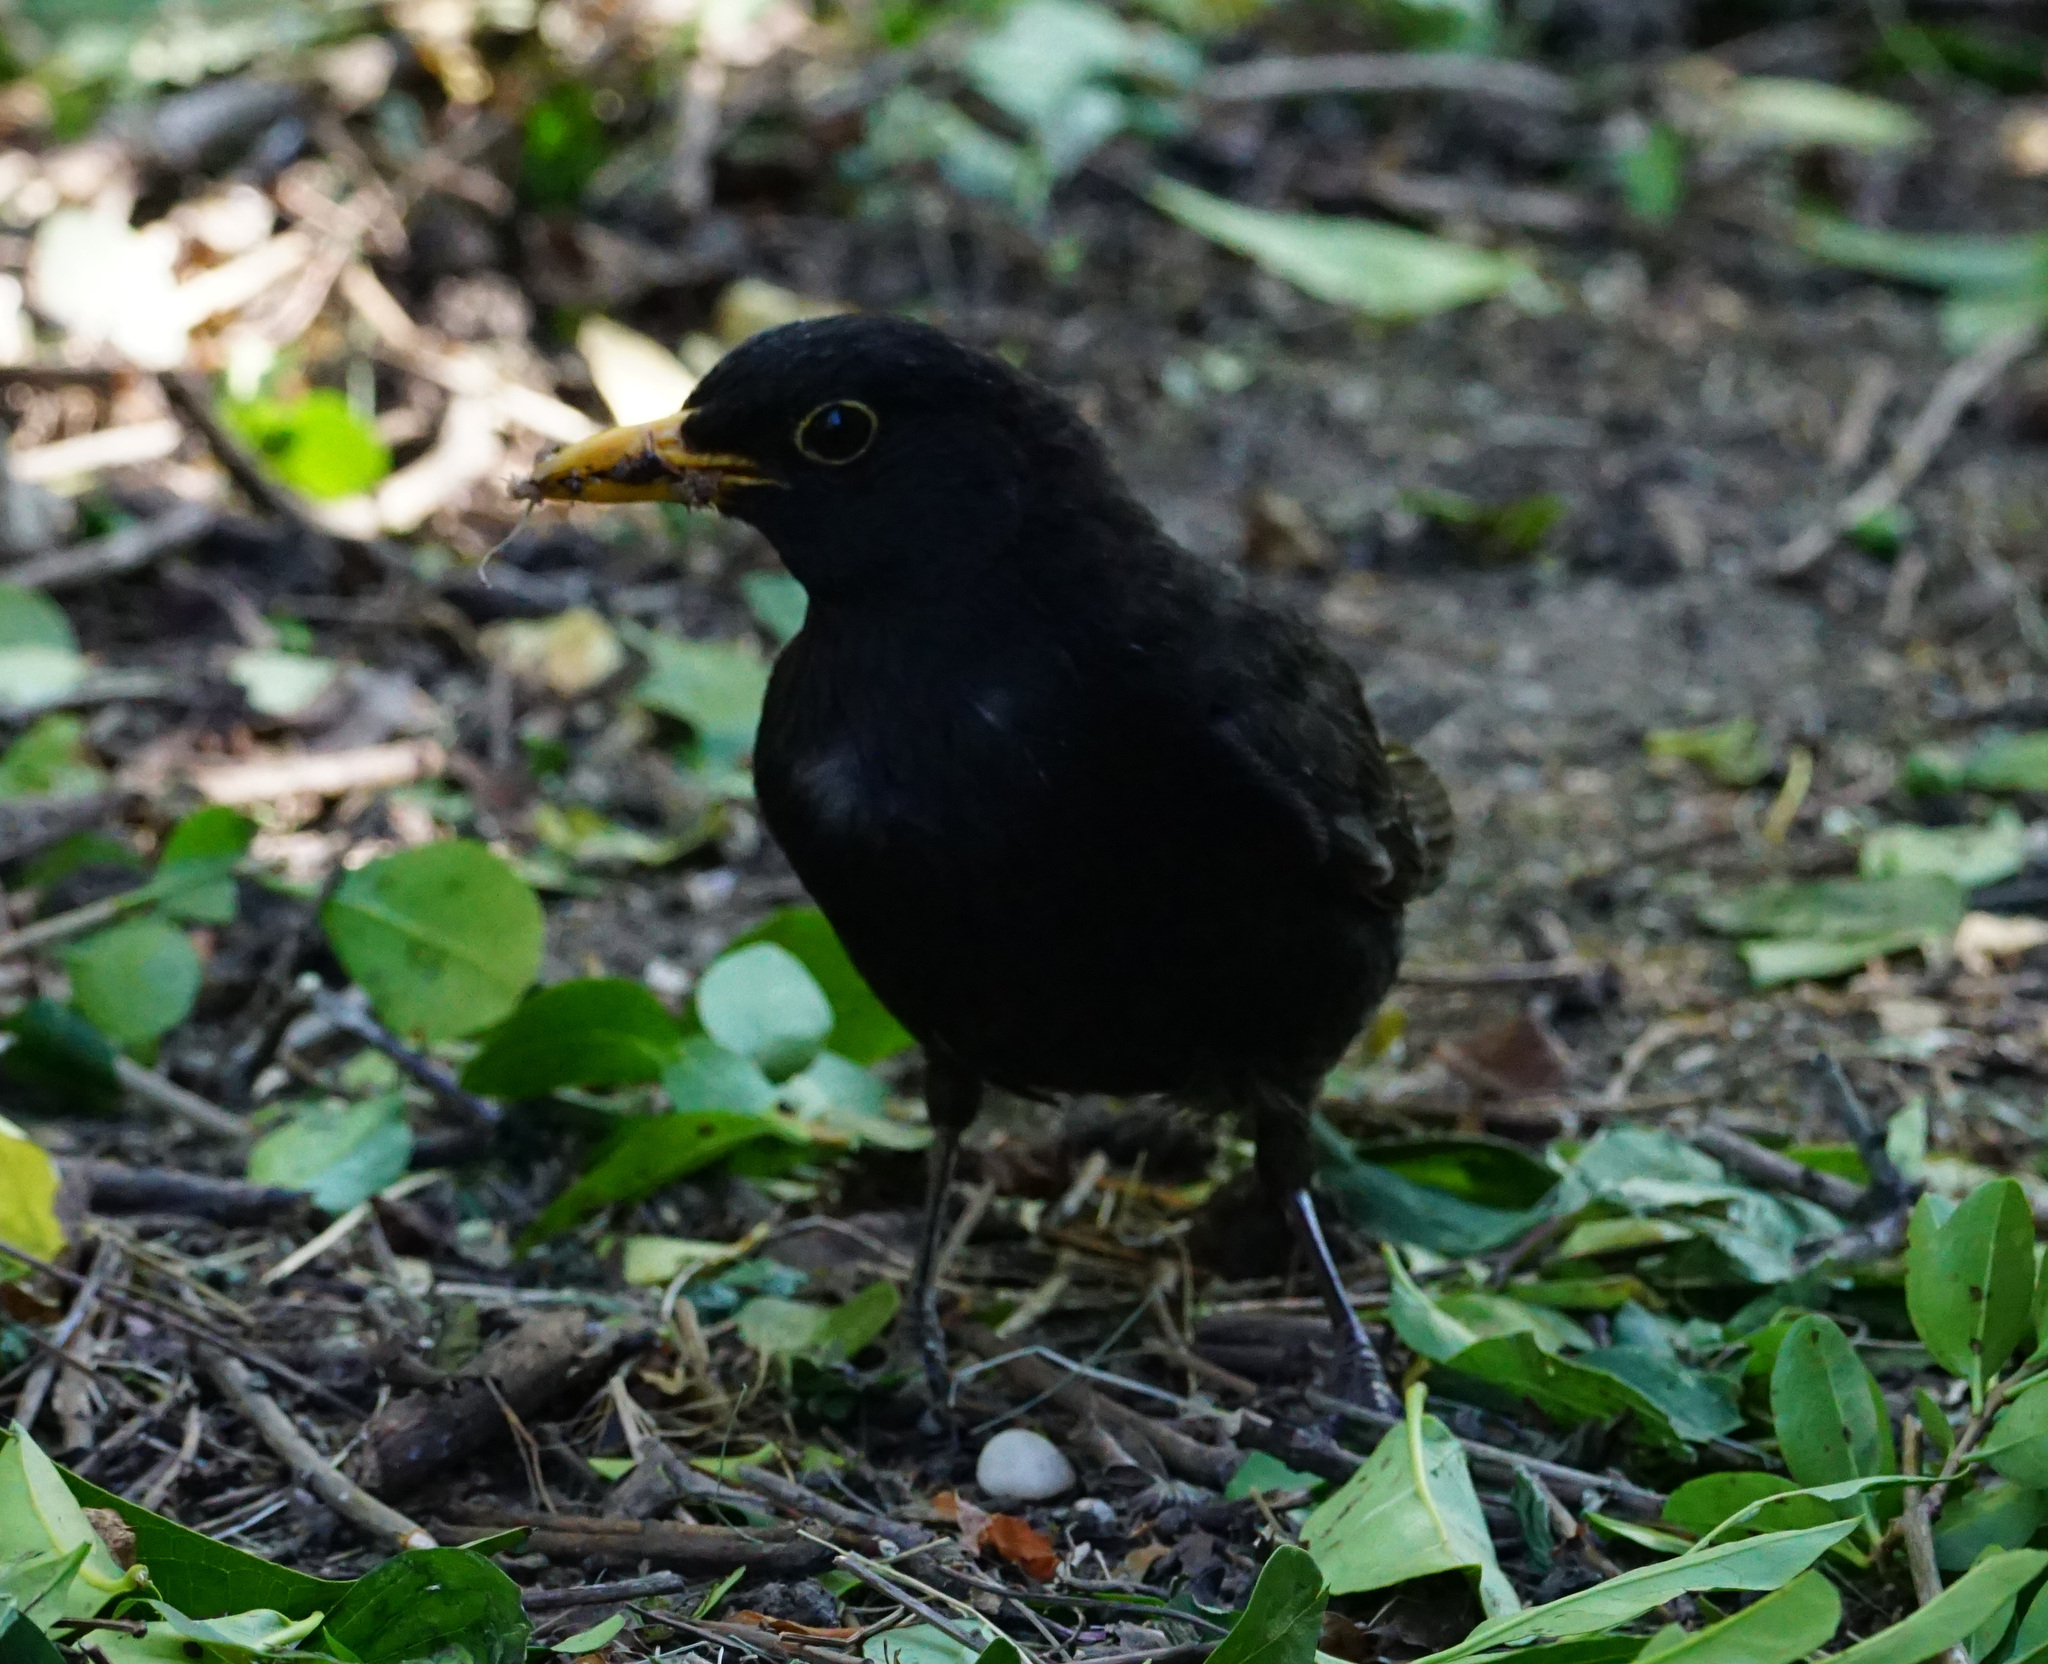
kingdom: Animalia
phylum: Chordata
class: Aves
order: Passeriformes
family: Turdidae
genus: Turdus
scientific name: Turdus merula
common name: Common blackbird
